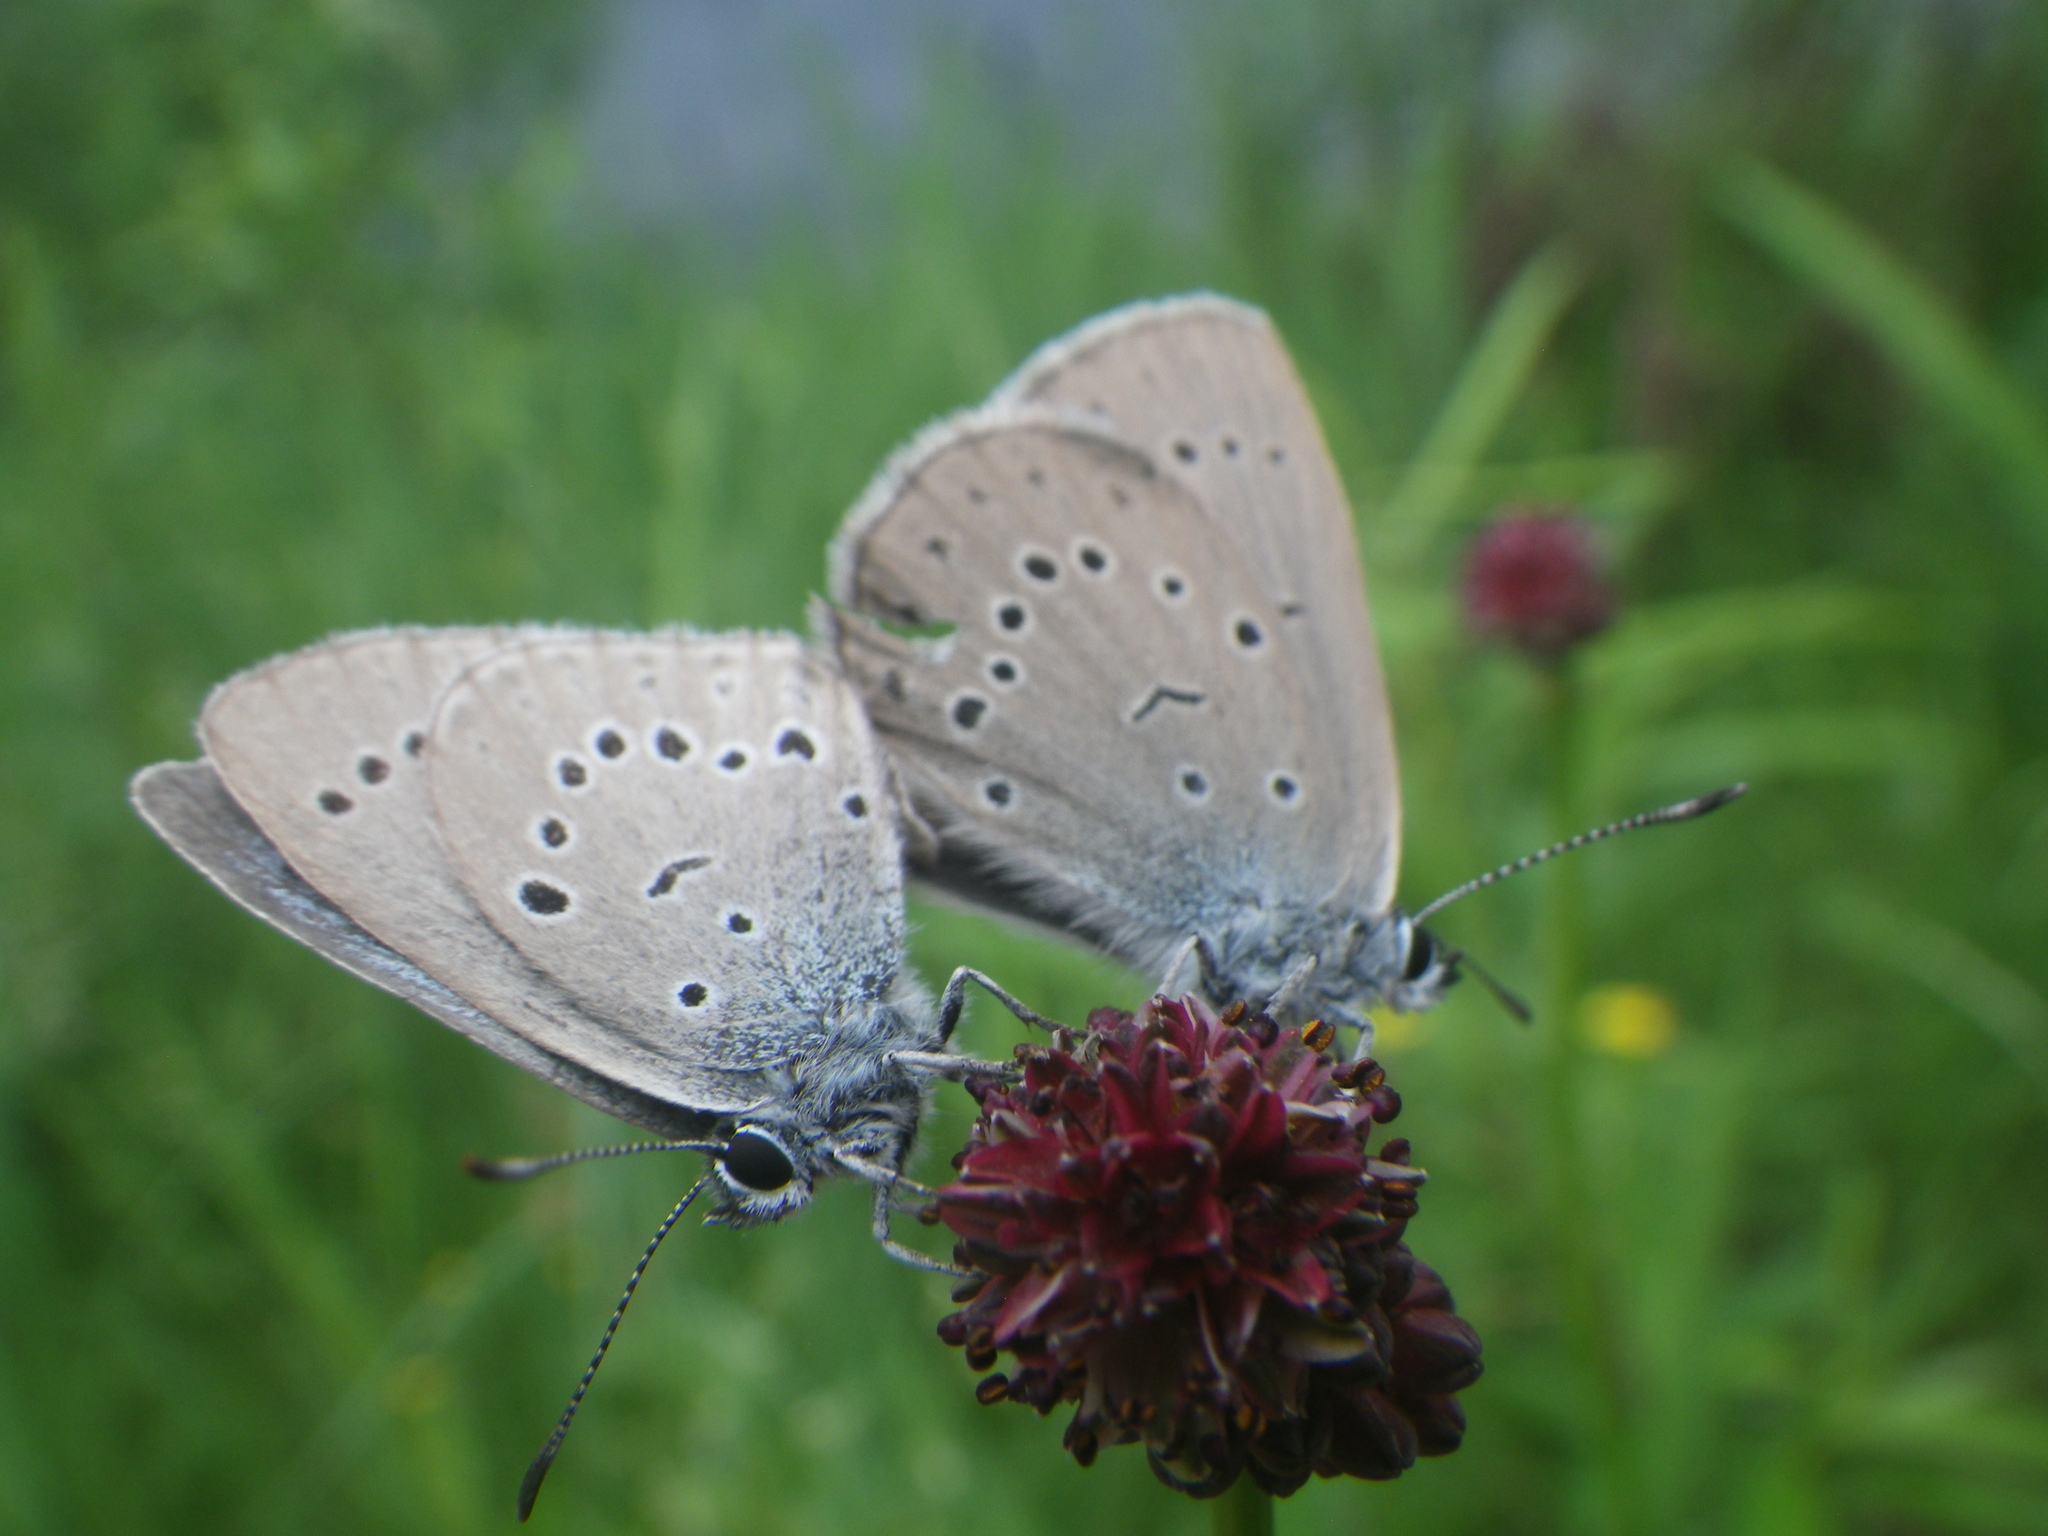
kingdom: Plantae
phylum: Tracheophyta
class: Magnoliopsida
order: Rosales
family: Rosaceae
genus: Sanguisorba
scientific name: Sanguisorba officinalis
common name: Great burnet
